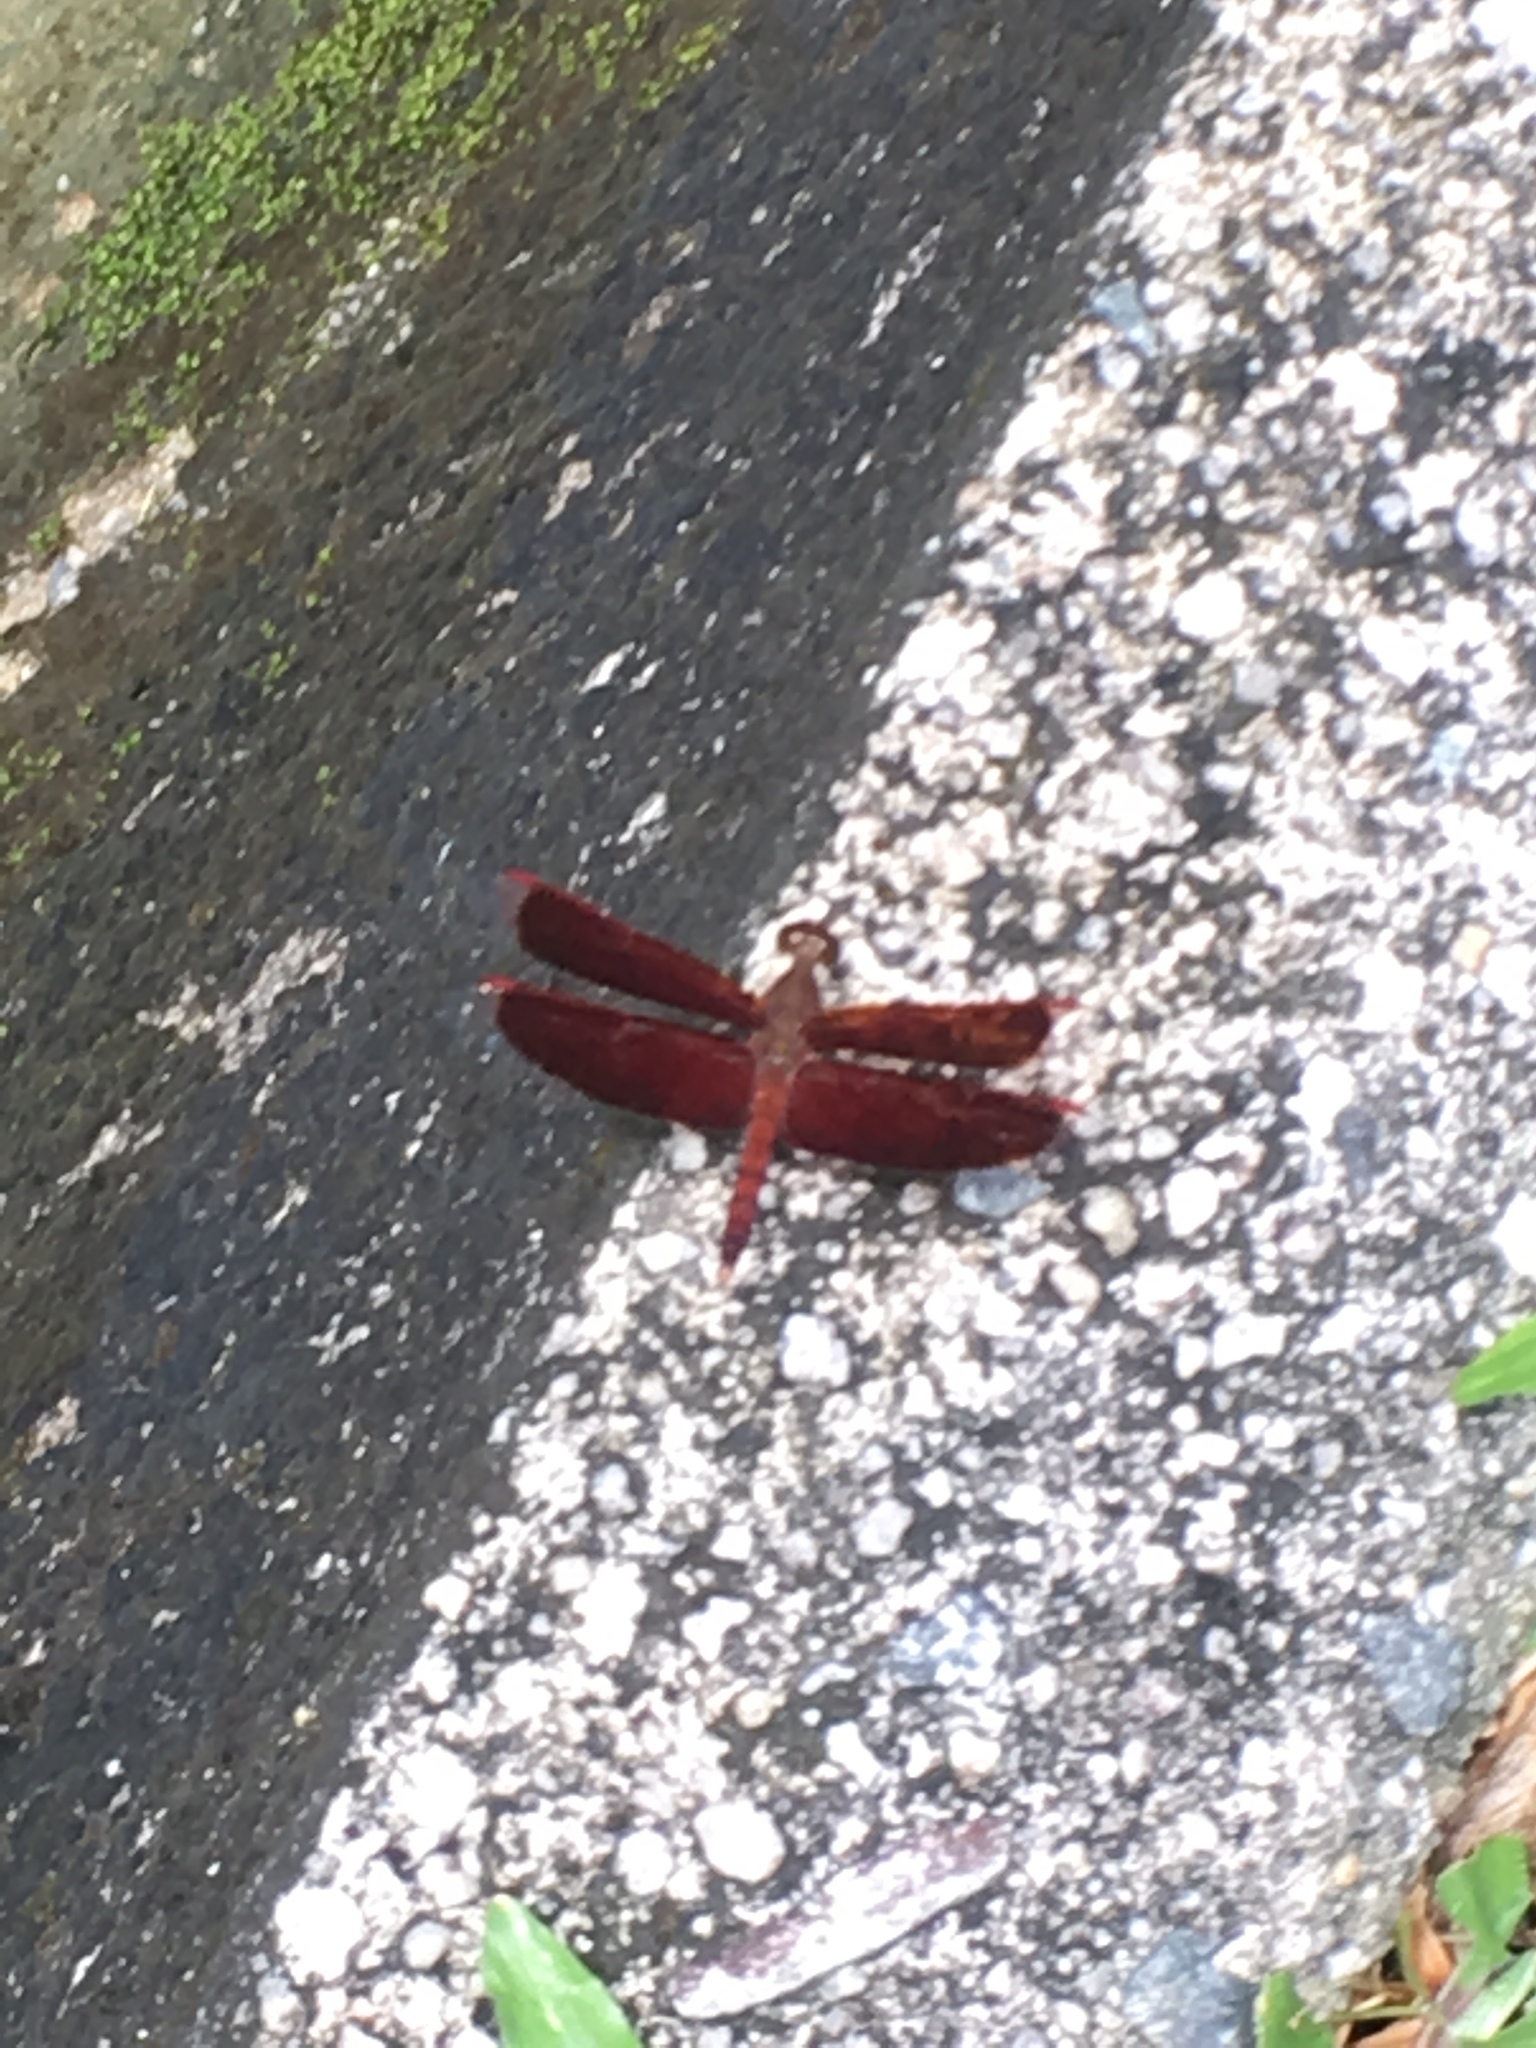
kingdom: Animalia
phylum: Arthropoda
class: Insecta
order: Odonata
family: Libellulidae
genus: Neurothemis
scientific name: Neurothemis fluctuans
